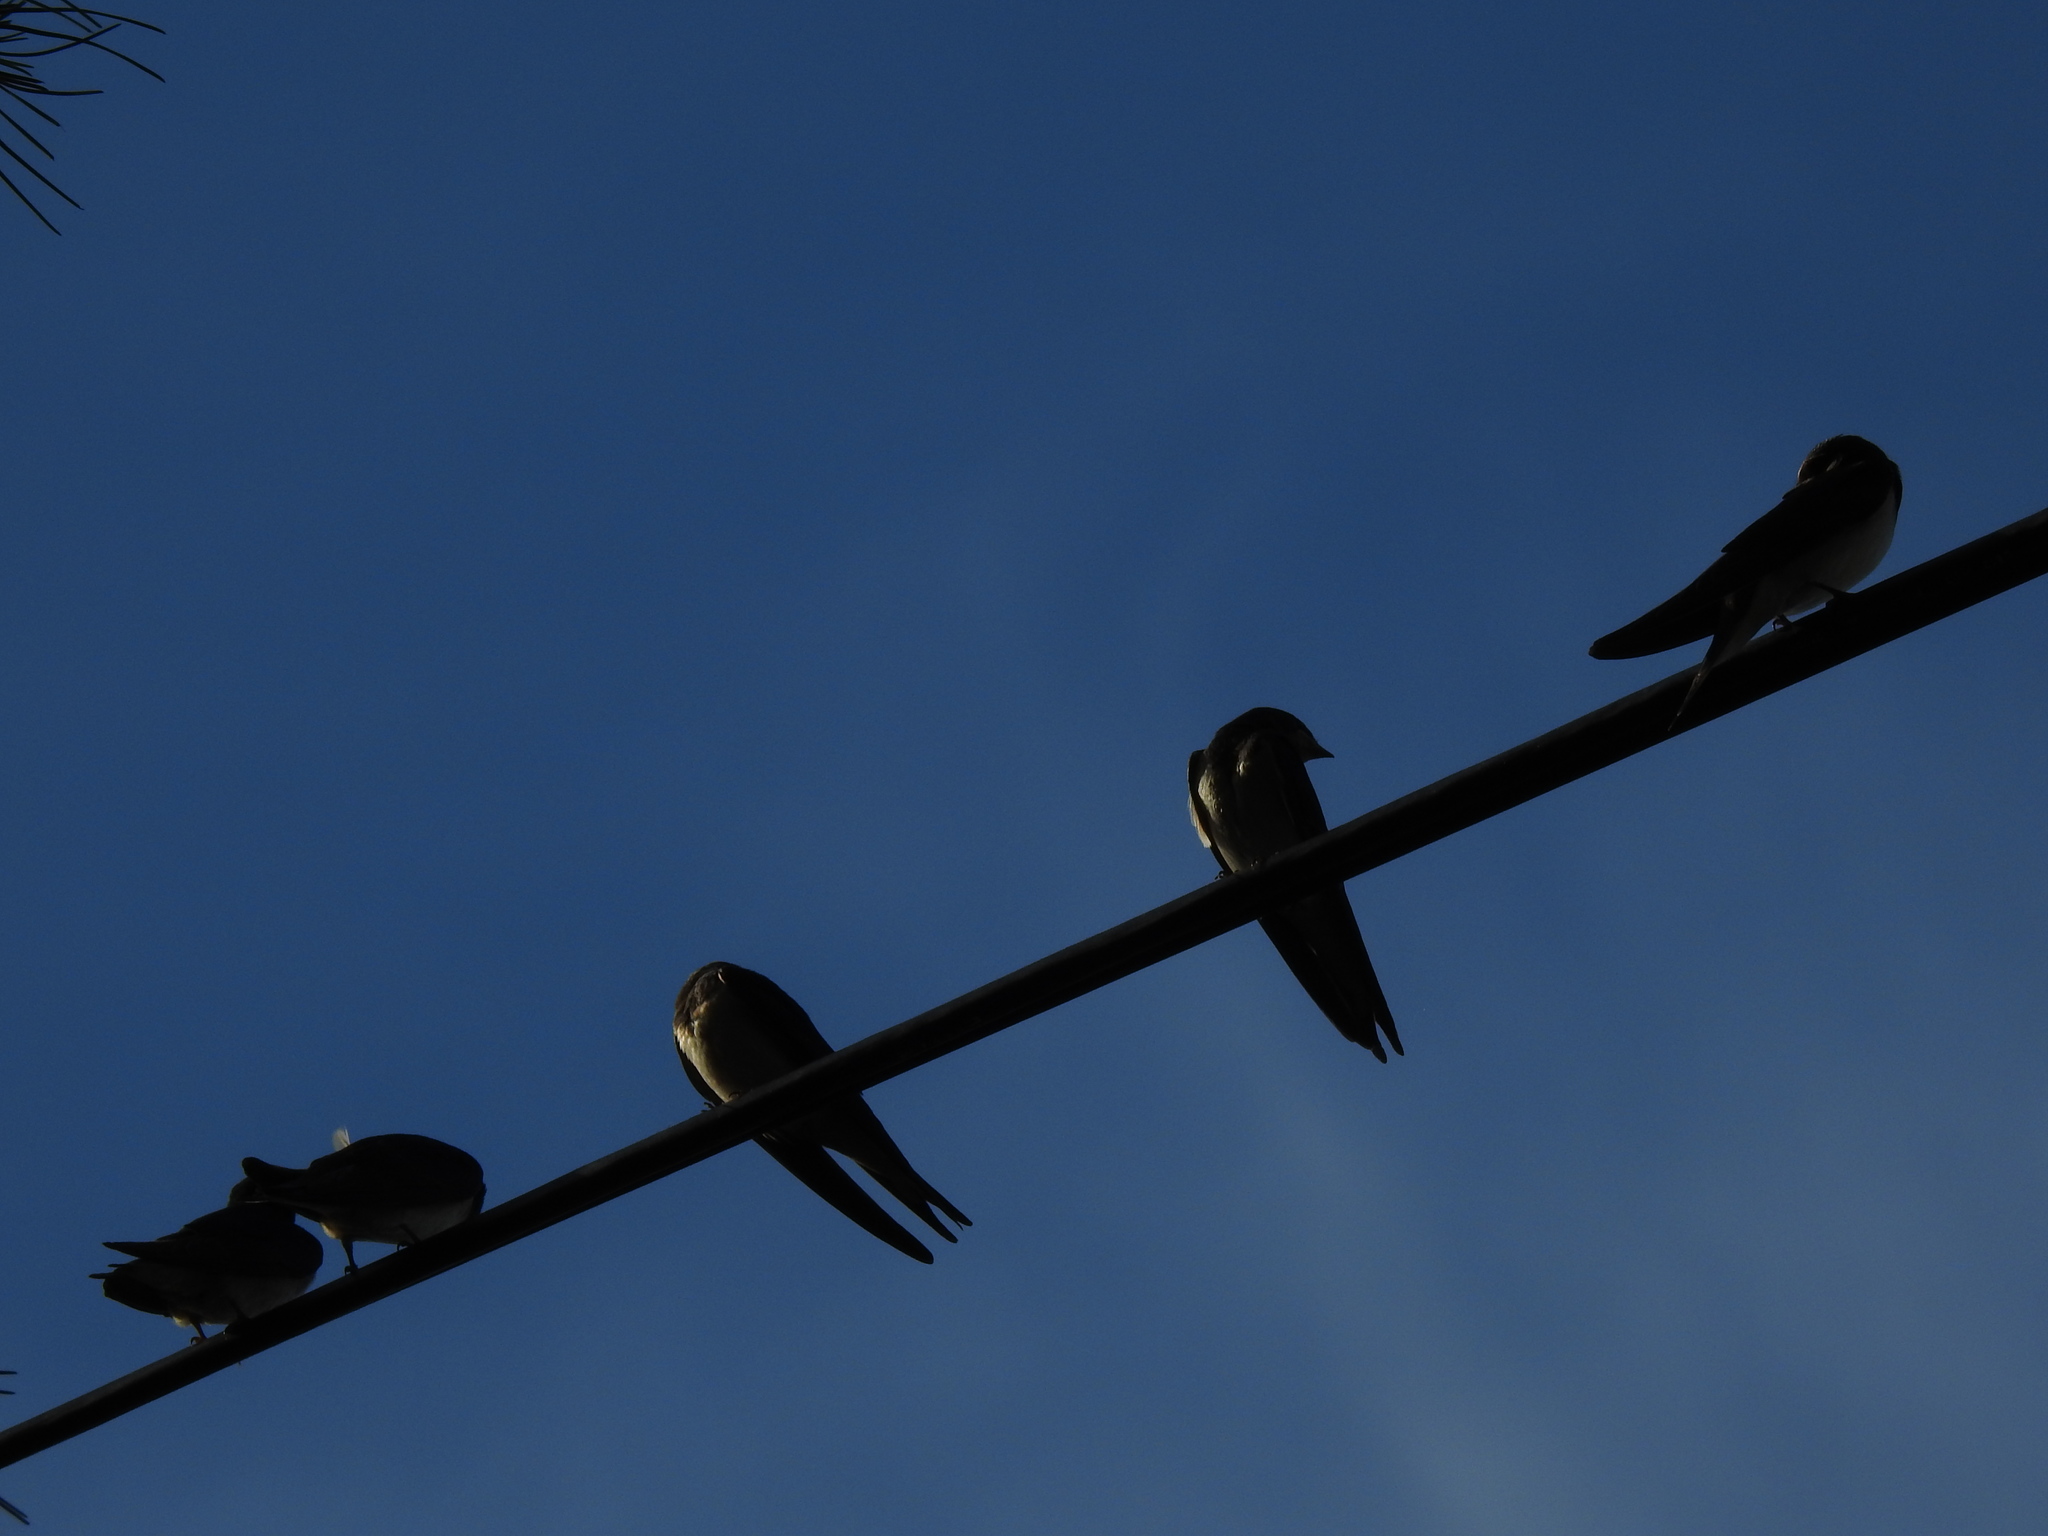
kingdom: Animalia
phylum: Chordata
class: Aves
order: Passeriformes
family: Hirundinidae
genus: Hirundo
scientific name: Hirundo rustica
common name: Barn swallow
